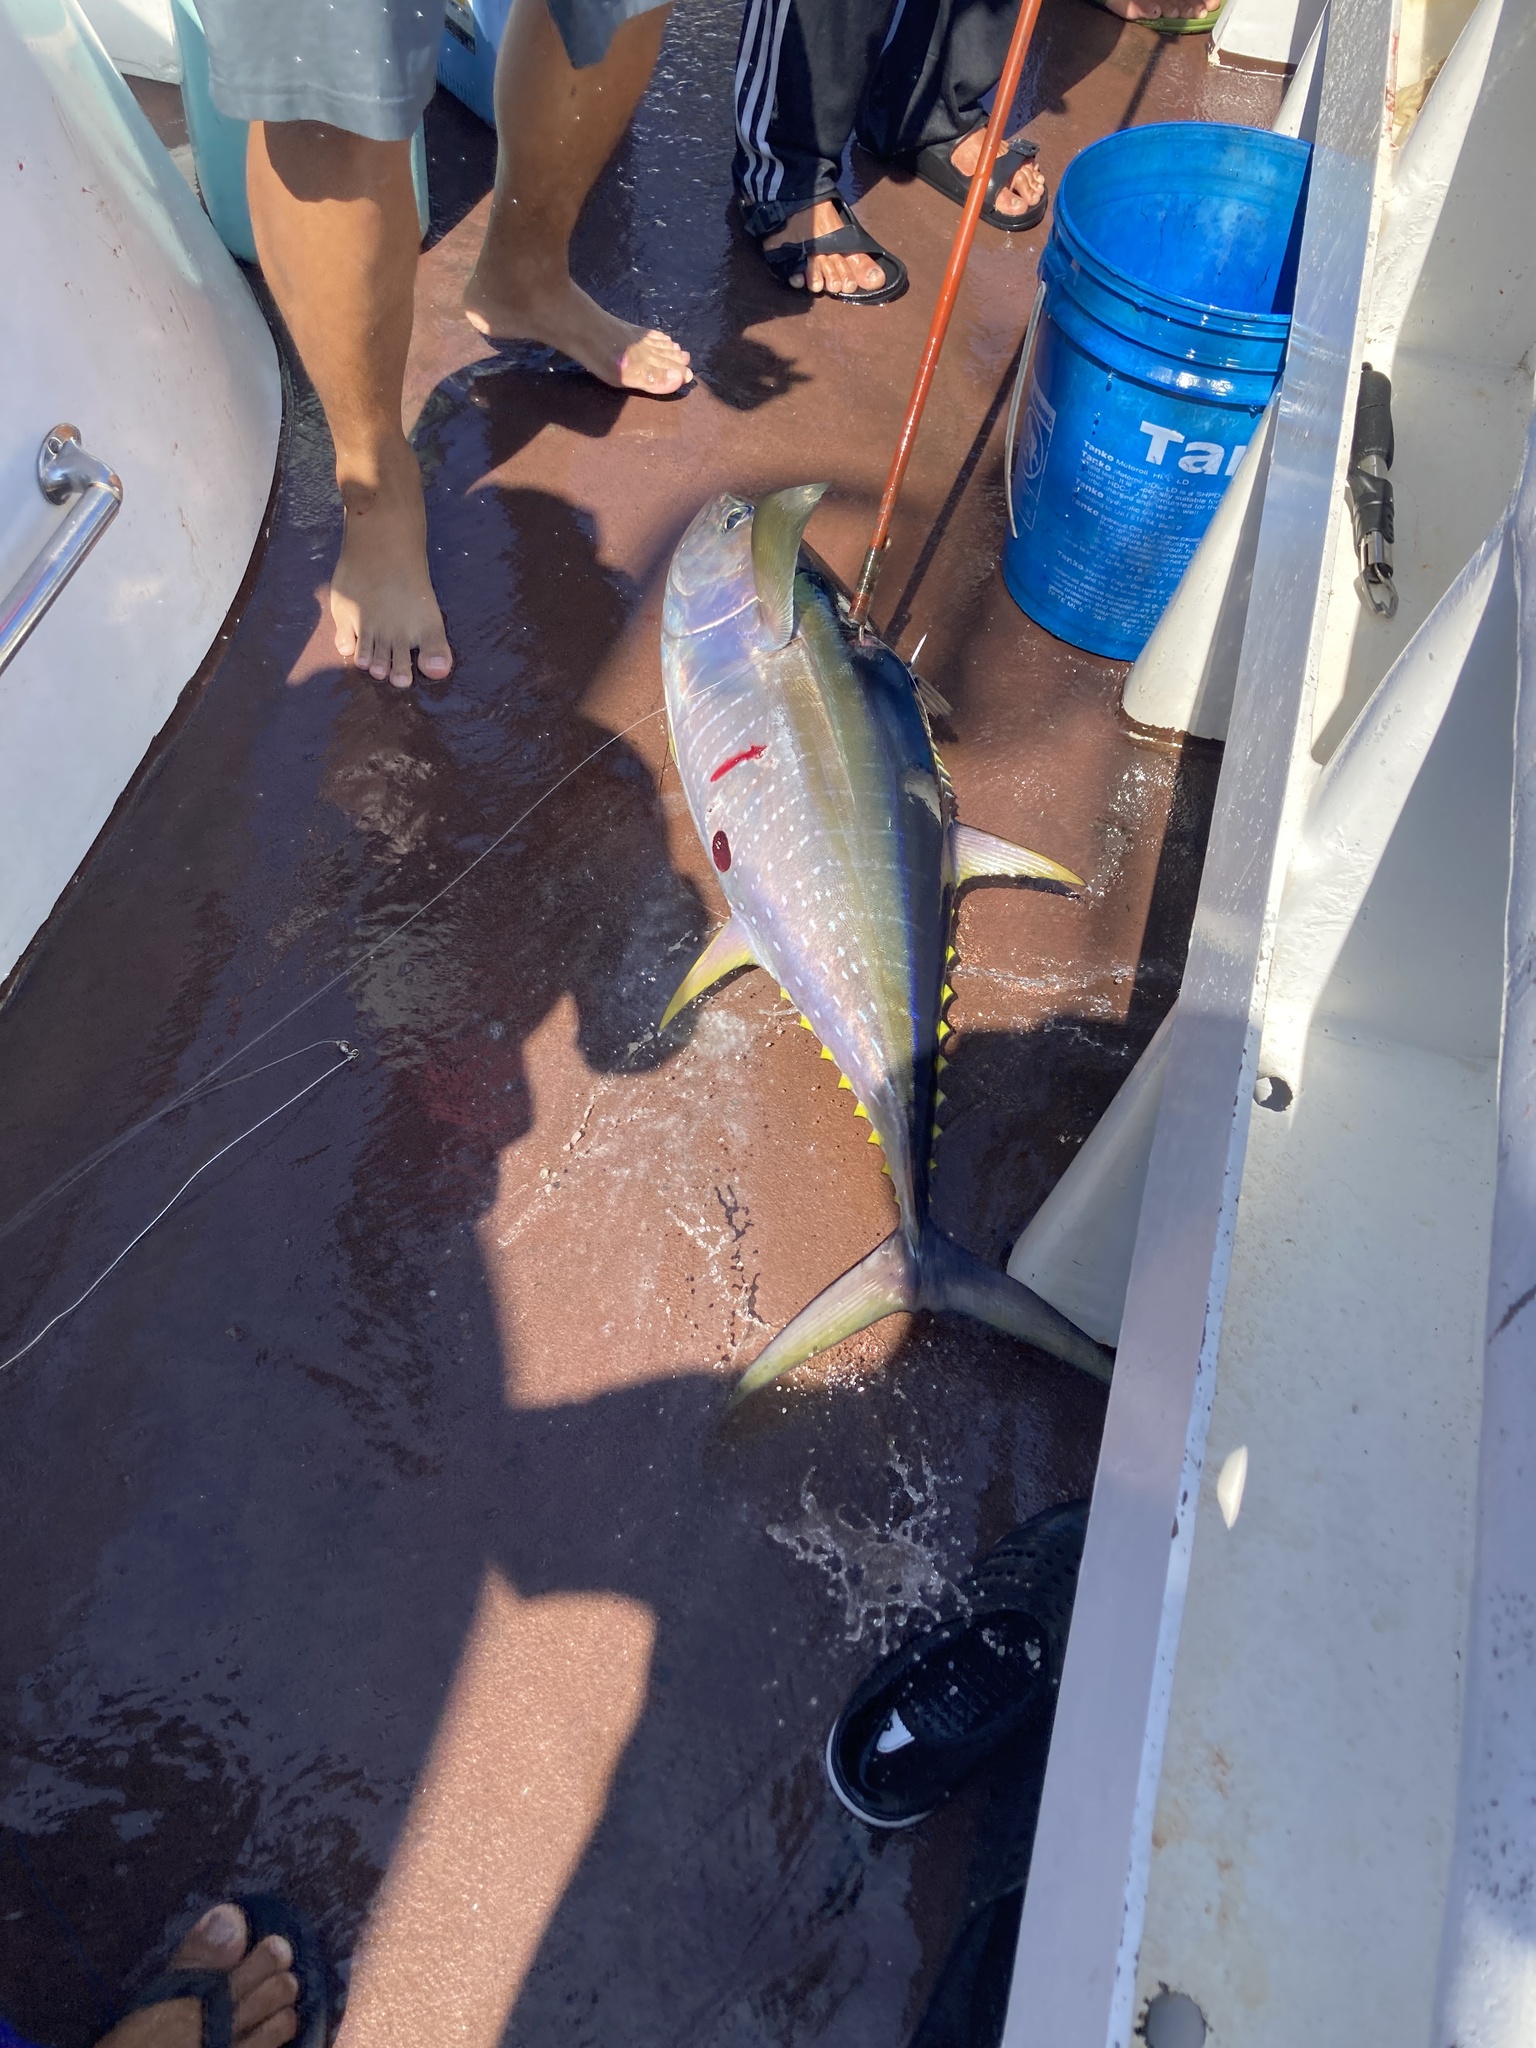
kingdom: Animalia
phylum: Chordata
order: Perciformes
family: Scombridae
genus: Thunnus
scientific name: Thunnus albacares
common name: Yellowfin tuna
